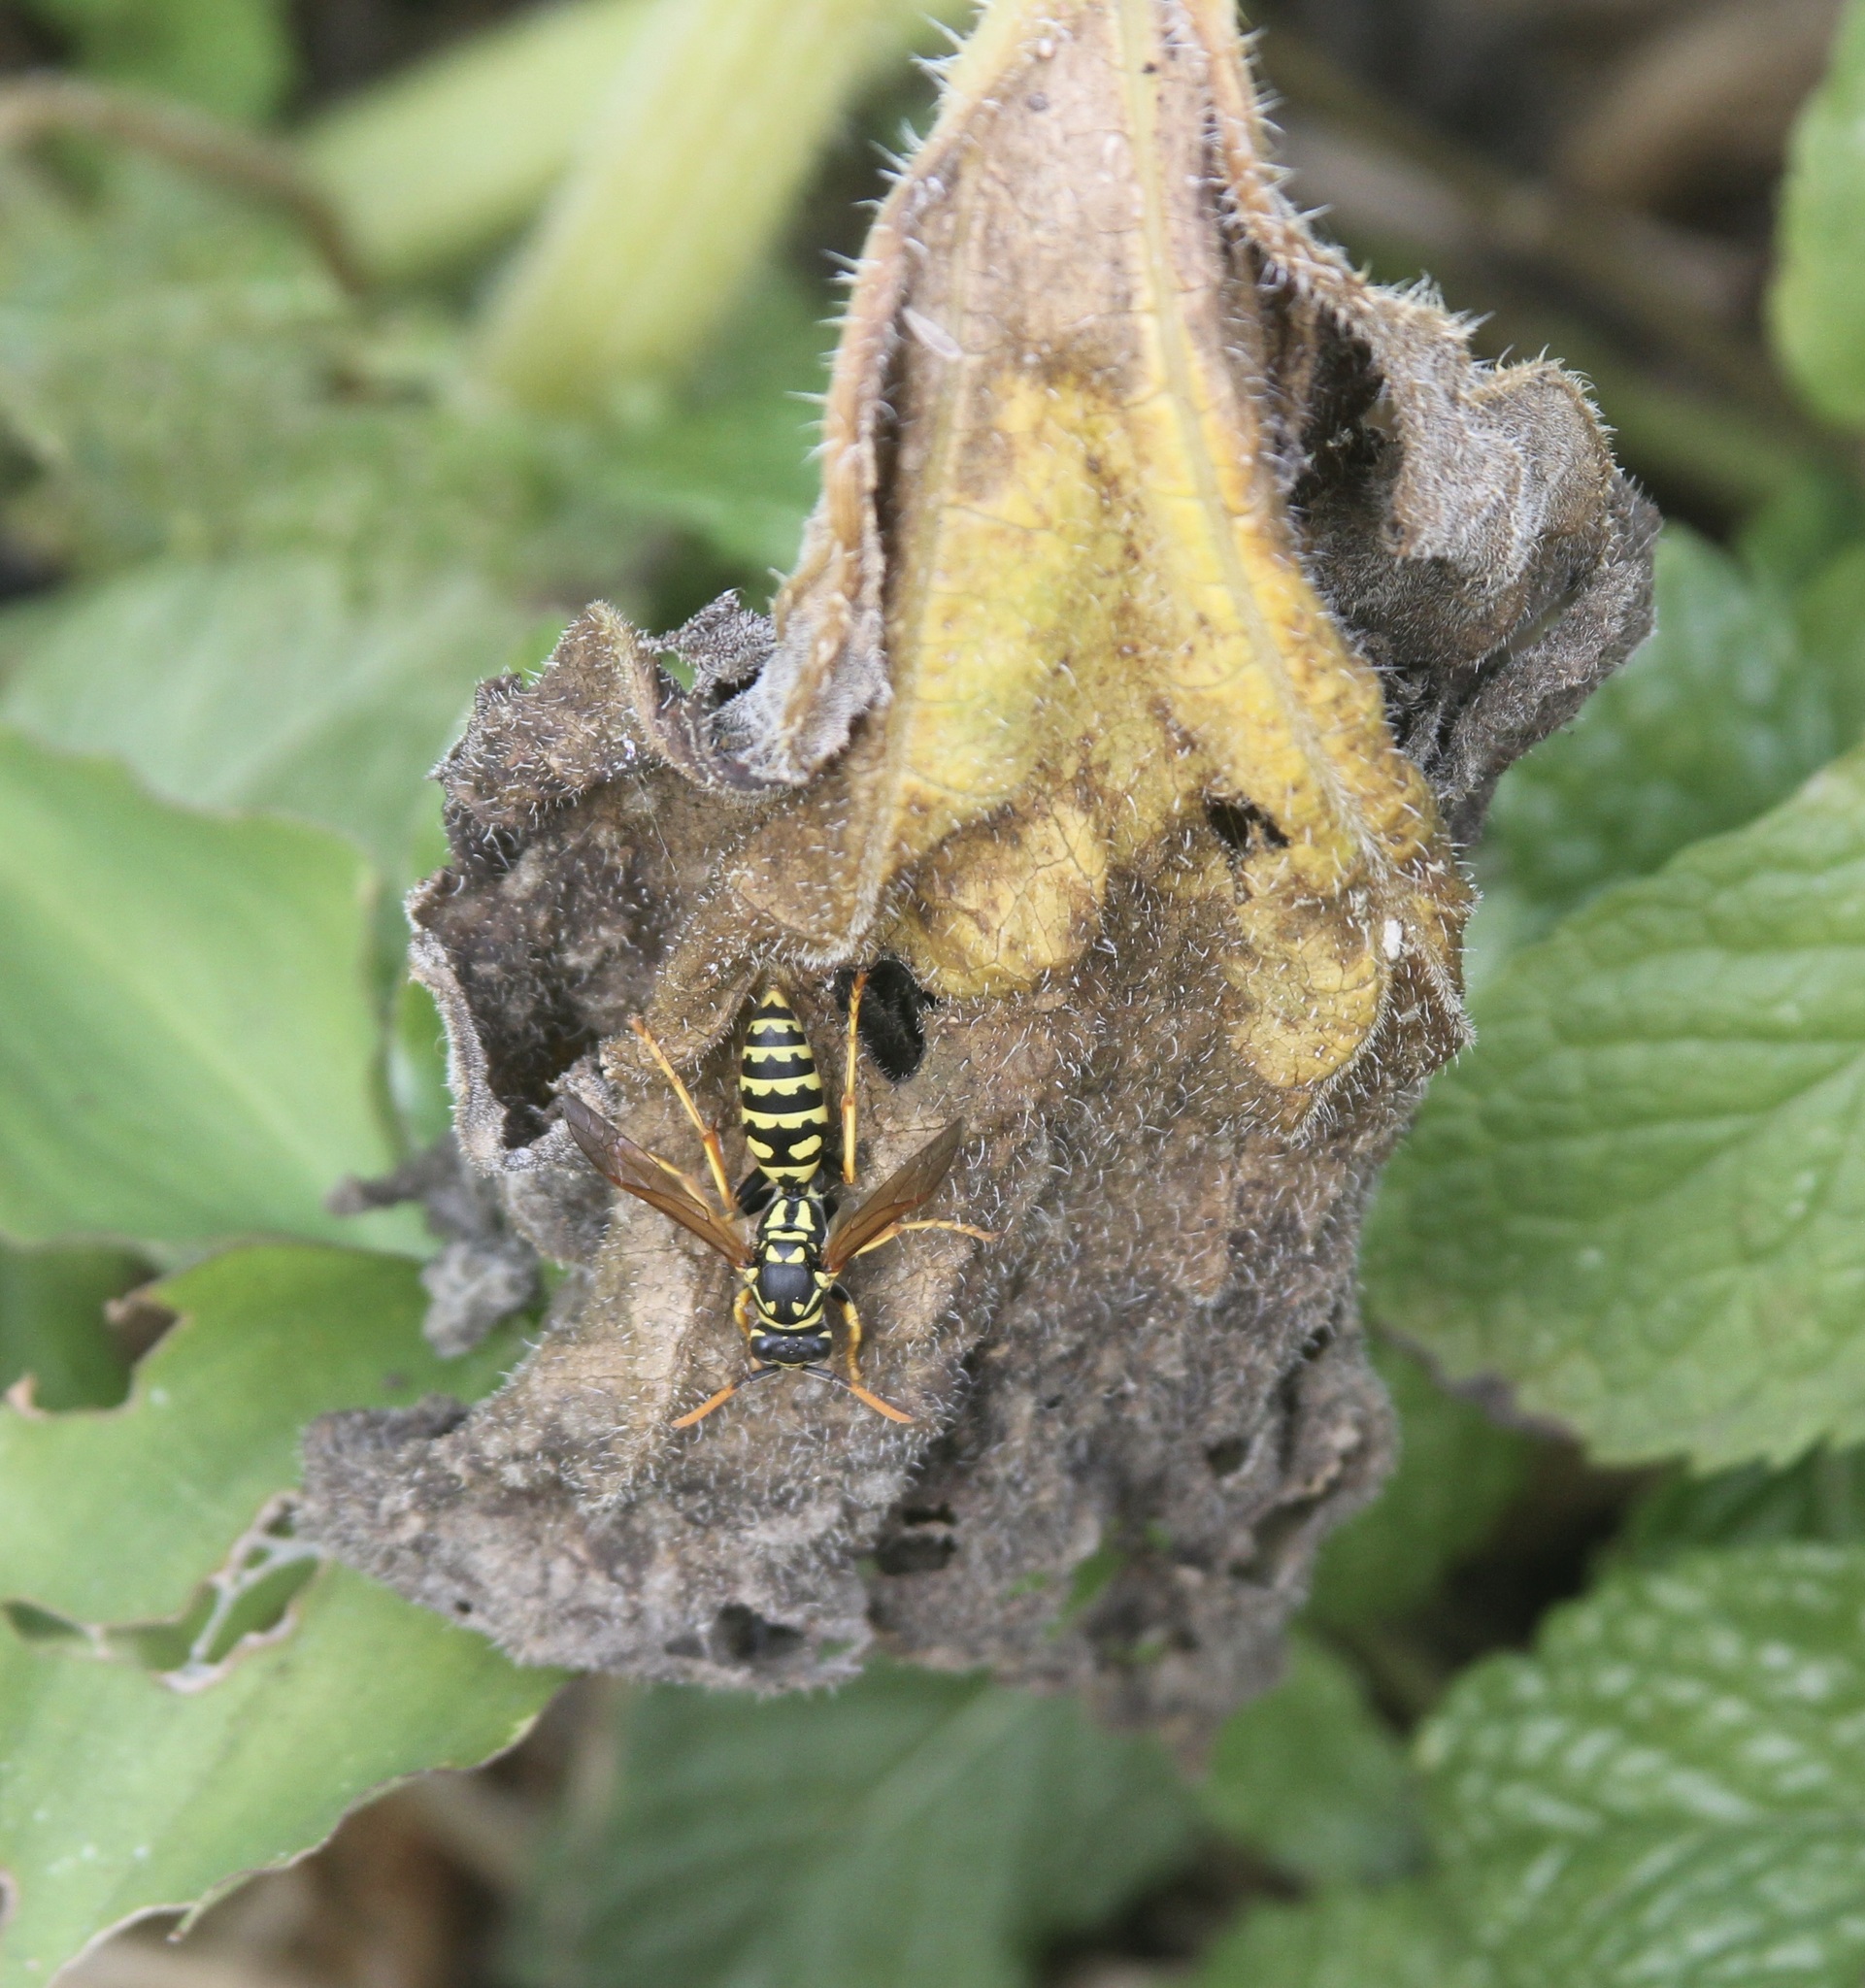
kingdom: Animalia
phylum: Arthropoda
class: Insecta
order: Hymenoptera
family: Eumenidae
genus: Polistes
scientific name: Polistes dominula
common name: Paper wasp
